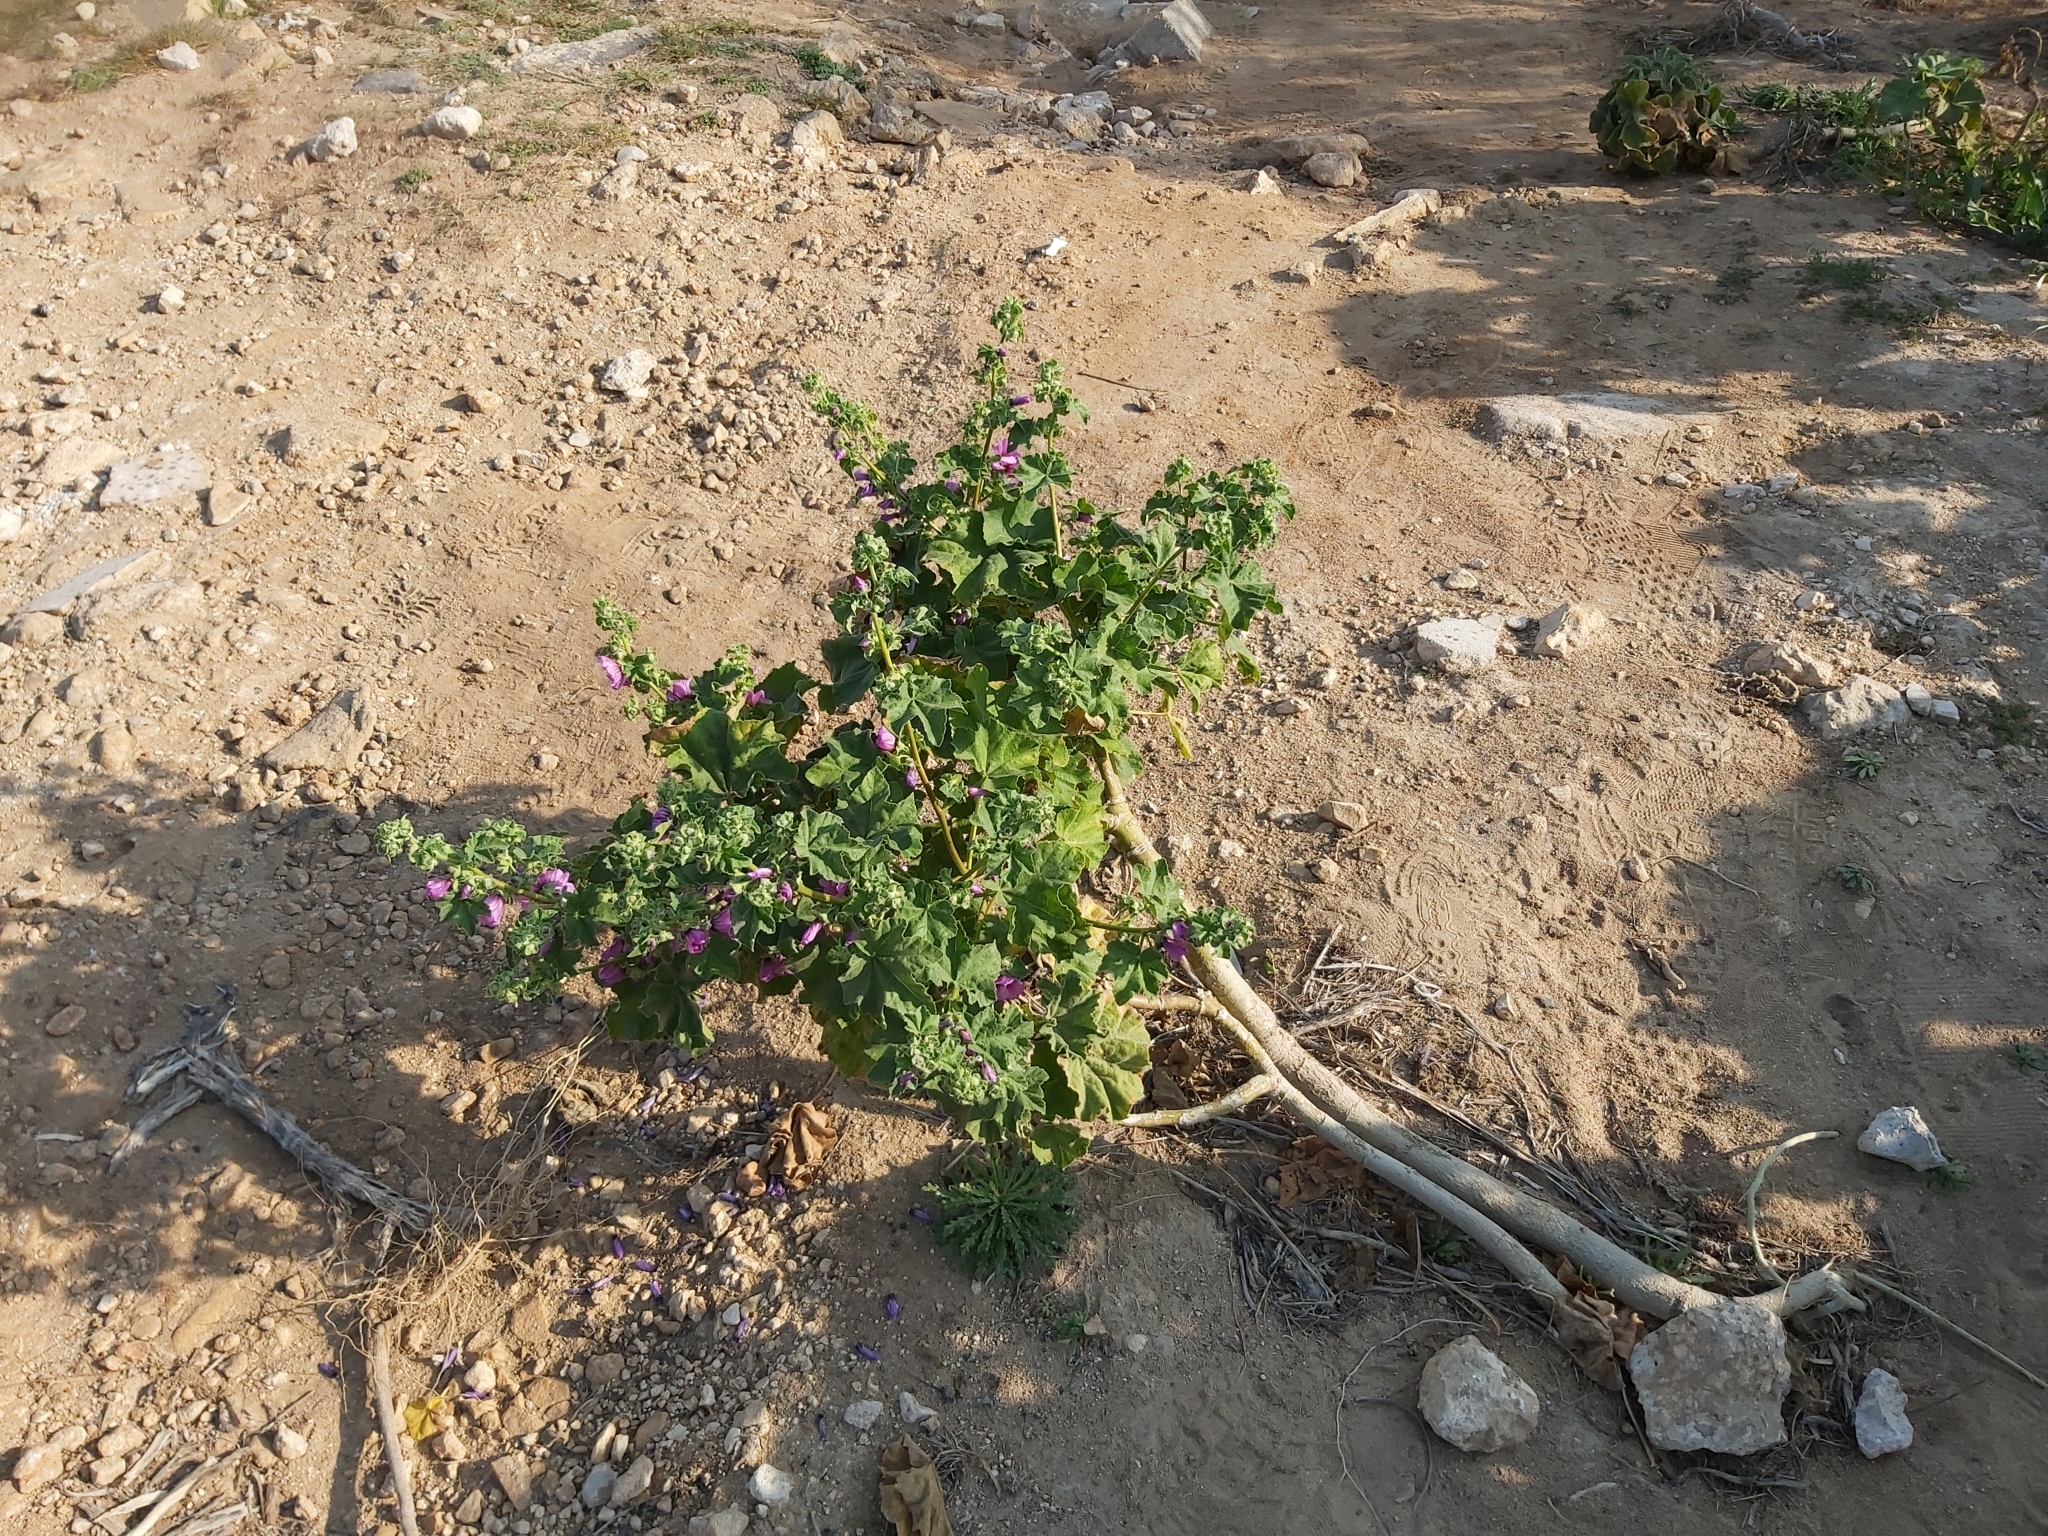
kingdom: Plantae
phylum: Tracheophyta
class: Magnoliopsida
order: Malvales
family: Malvaceae
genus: Malva
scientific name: Malva arborea
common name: Tree mallow
